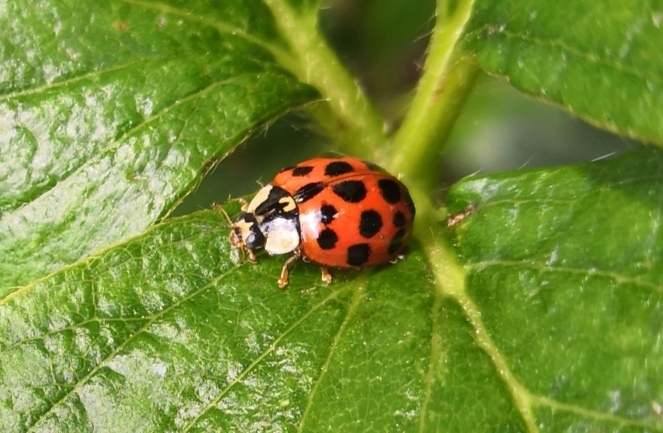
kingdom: Animalia
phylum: Arthropoda
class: Insecta
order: Coleoptera
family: Coccinellidae
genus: Harmonia
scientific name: Harmonia axyridis
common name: Harlequin ladybird
